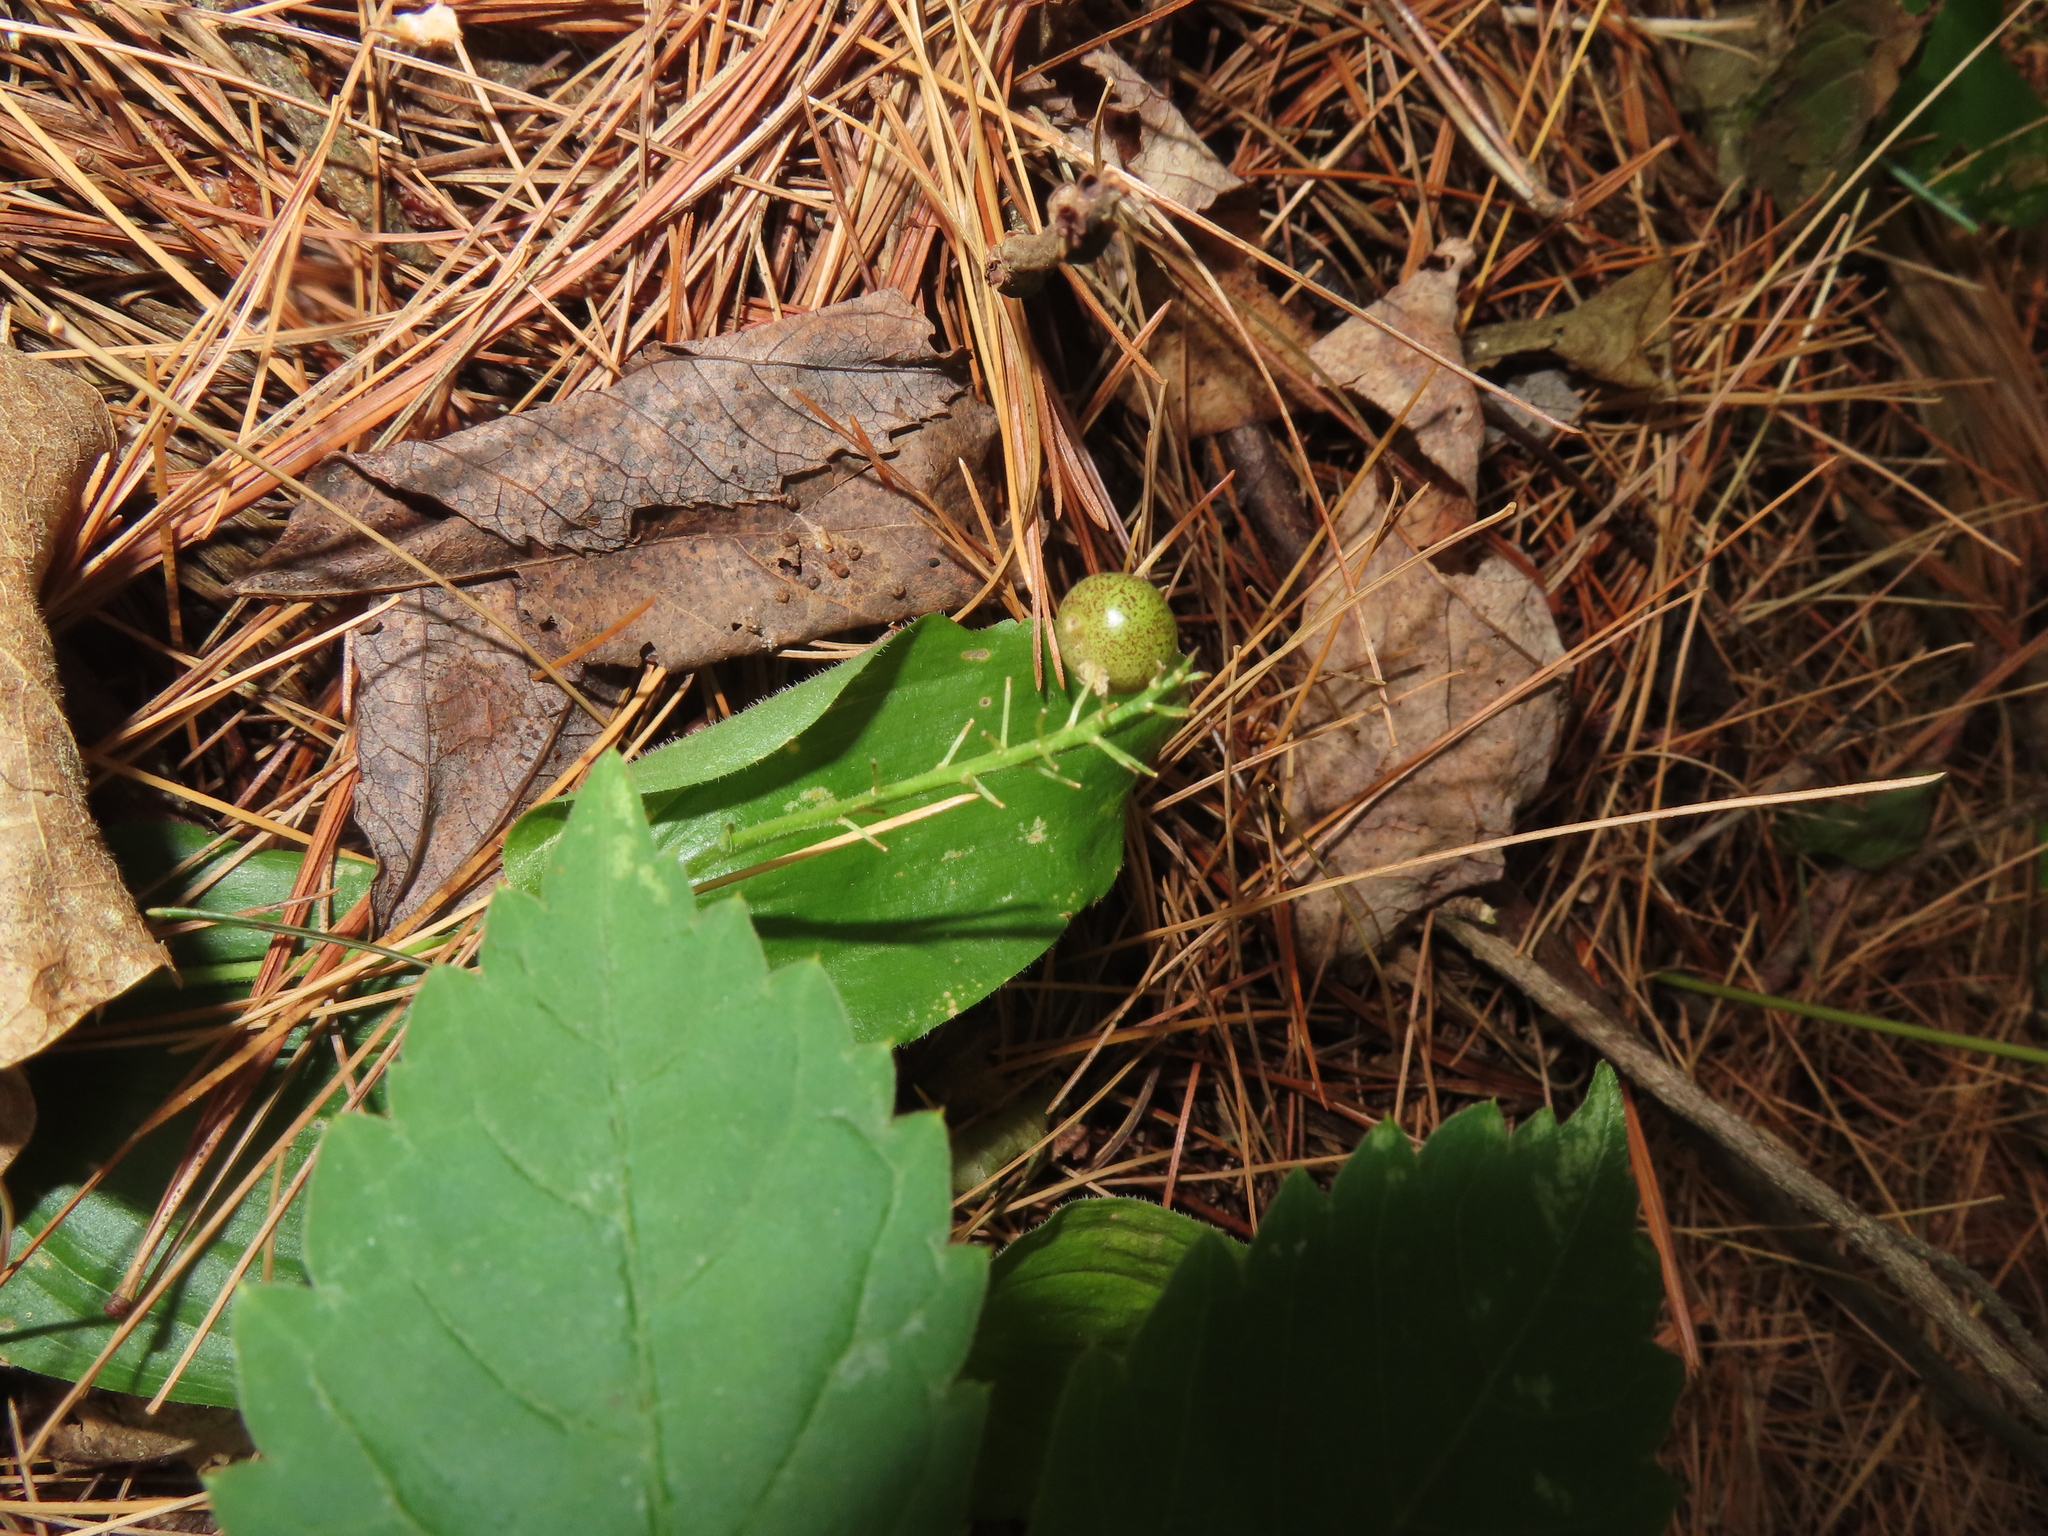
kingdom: Plantae
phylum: Tracheophyta
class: Liliopsida
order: Asparagales
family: Asparagaceae
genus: Maianthemum
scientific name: Maianthemum canadense
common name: False lily-of-the-valley
